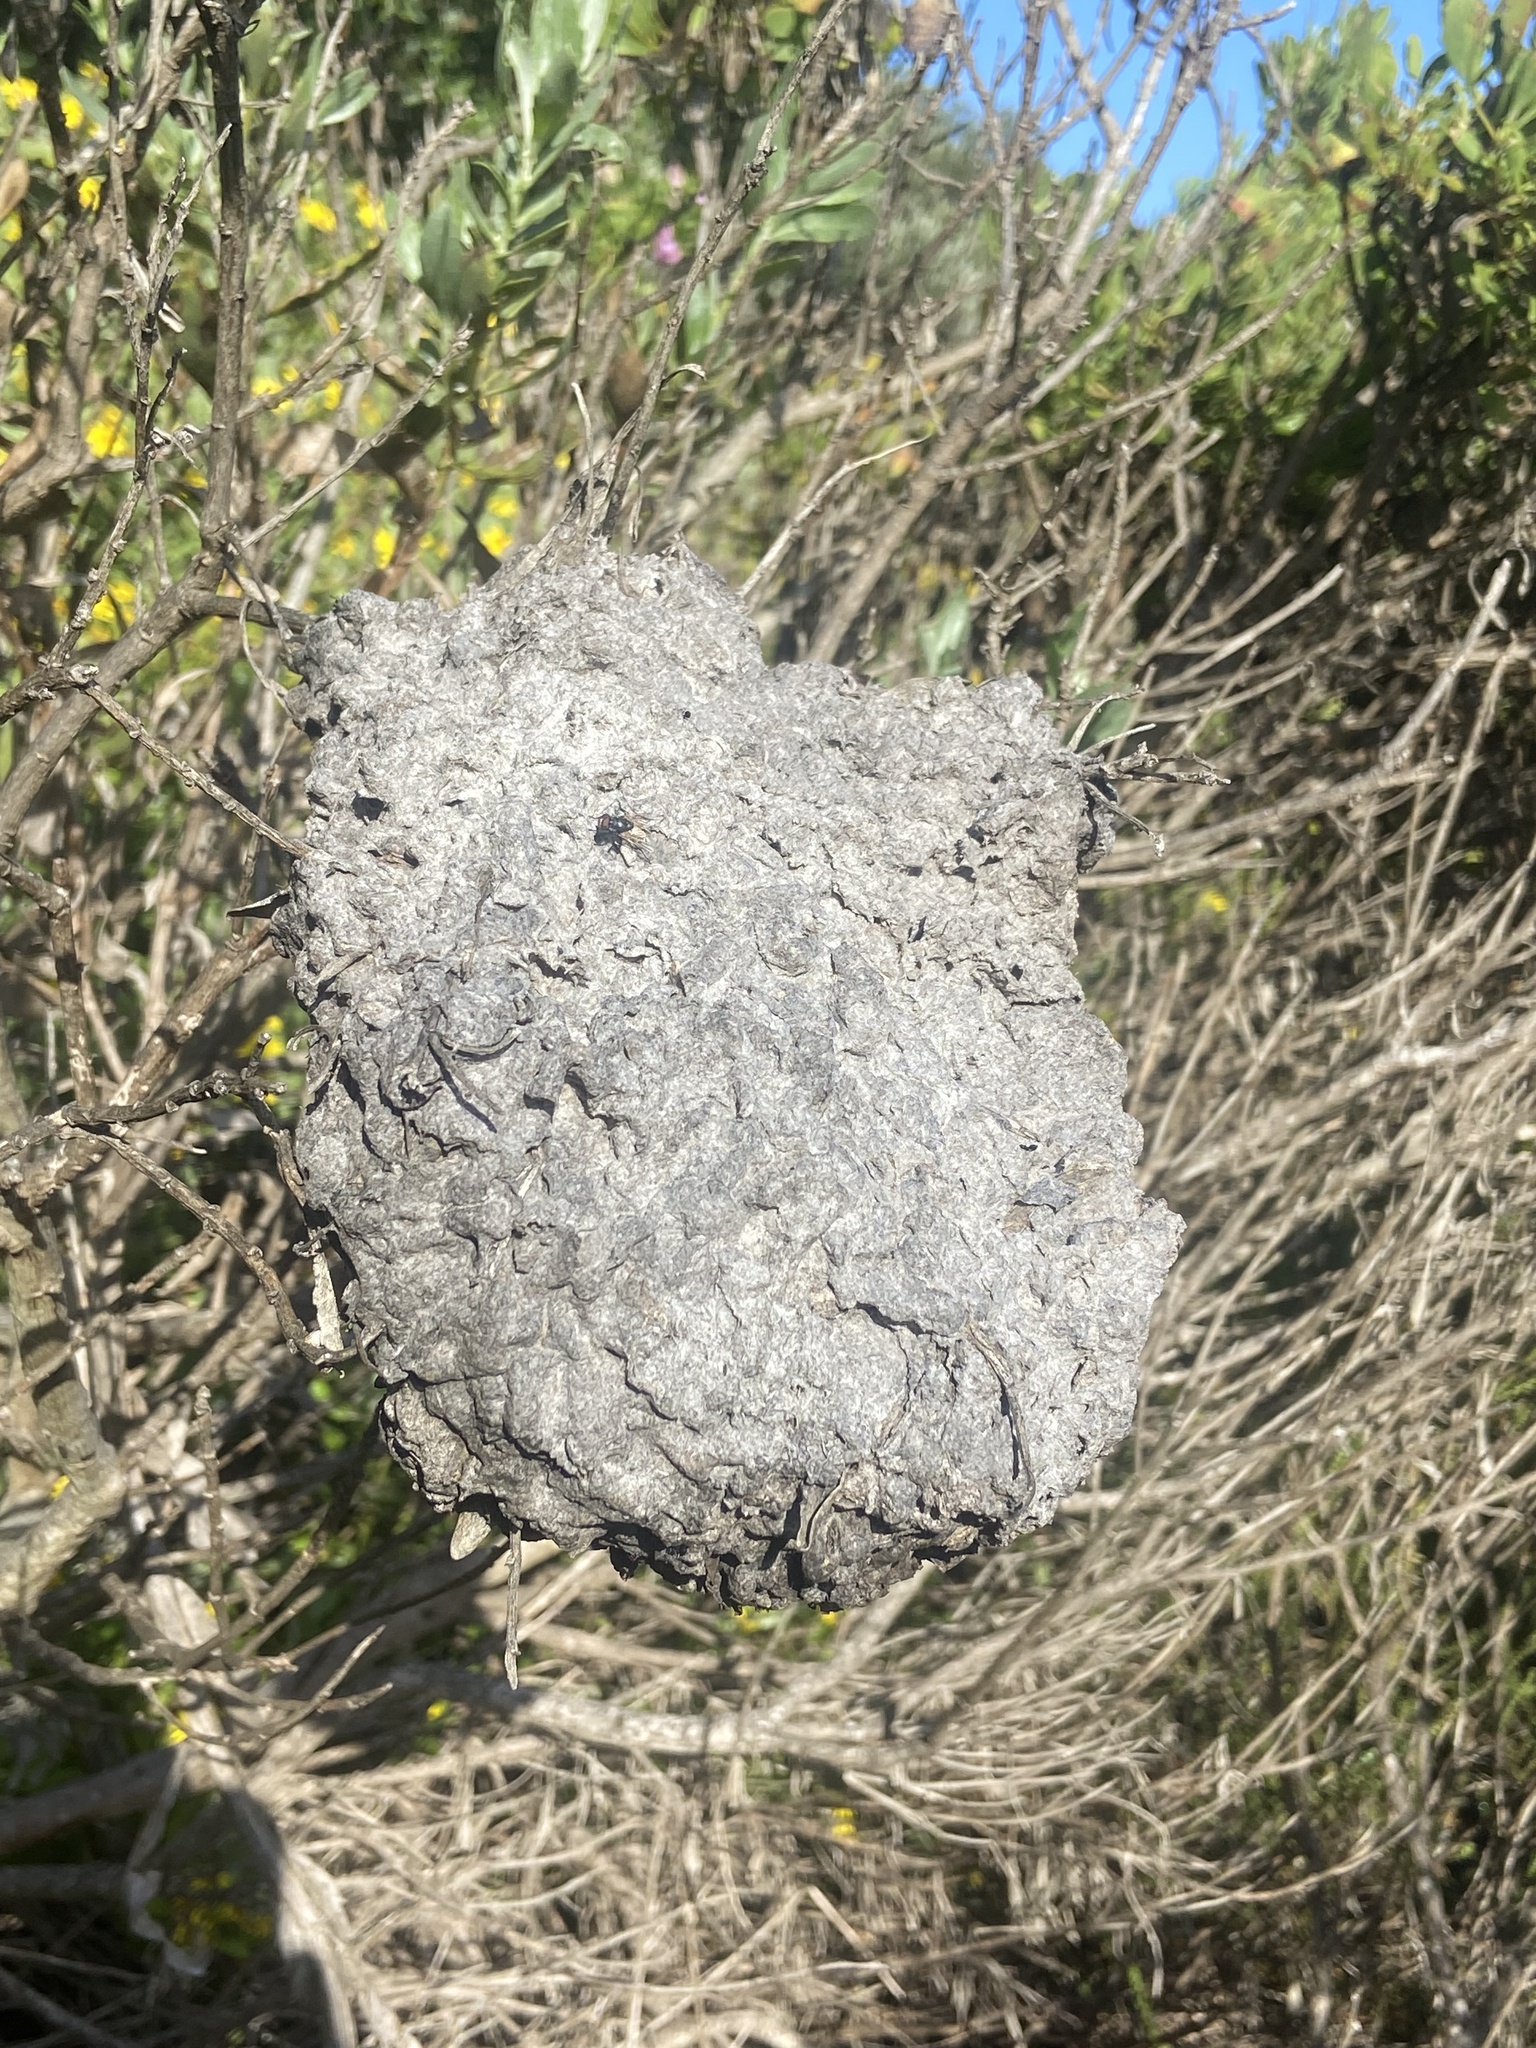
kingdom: Animalia
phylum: Arthropoda
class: Insecta
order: Hymenoptera
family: Formicidae
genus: Crematogaster
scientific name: Crematogaster peringueyi
